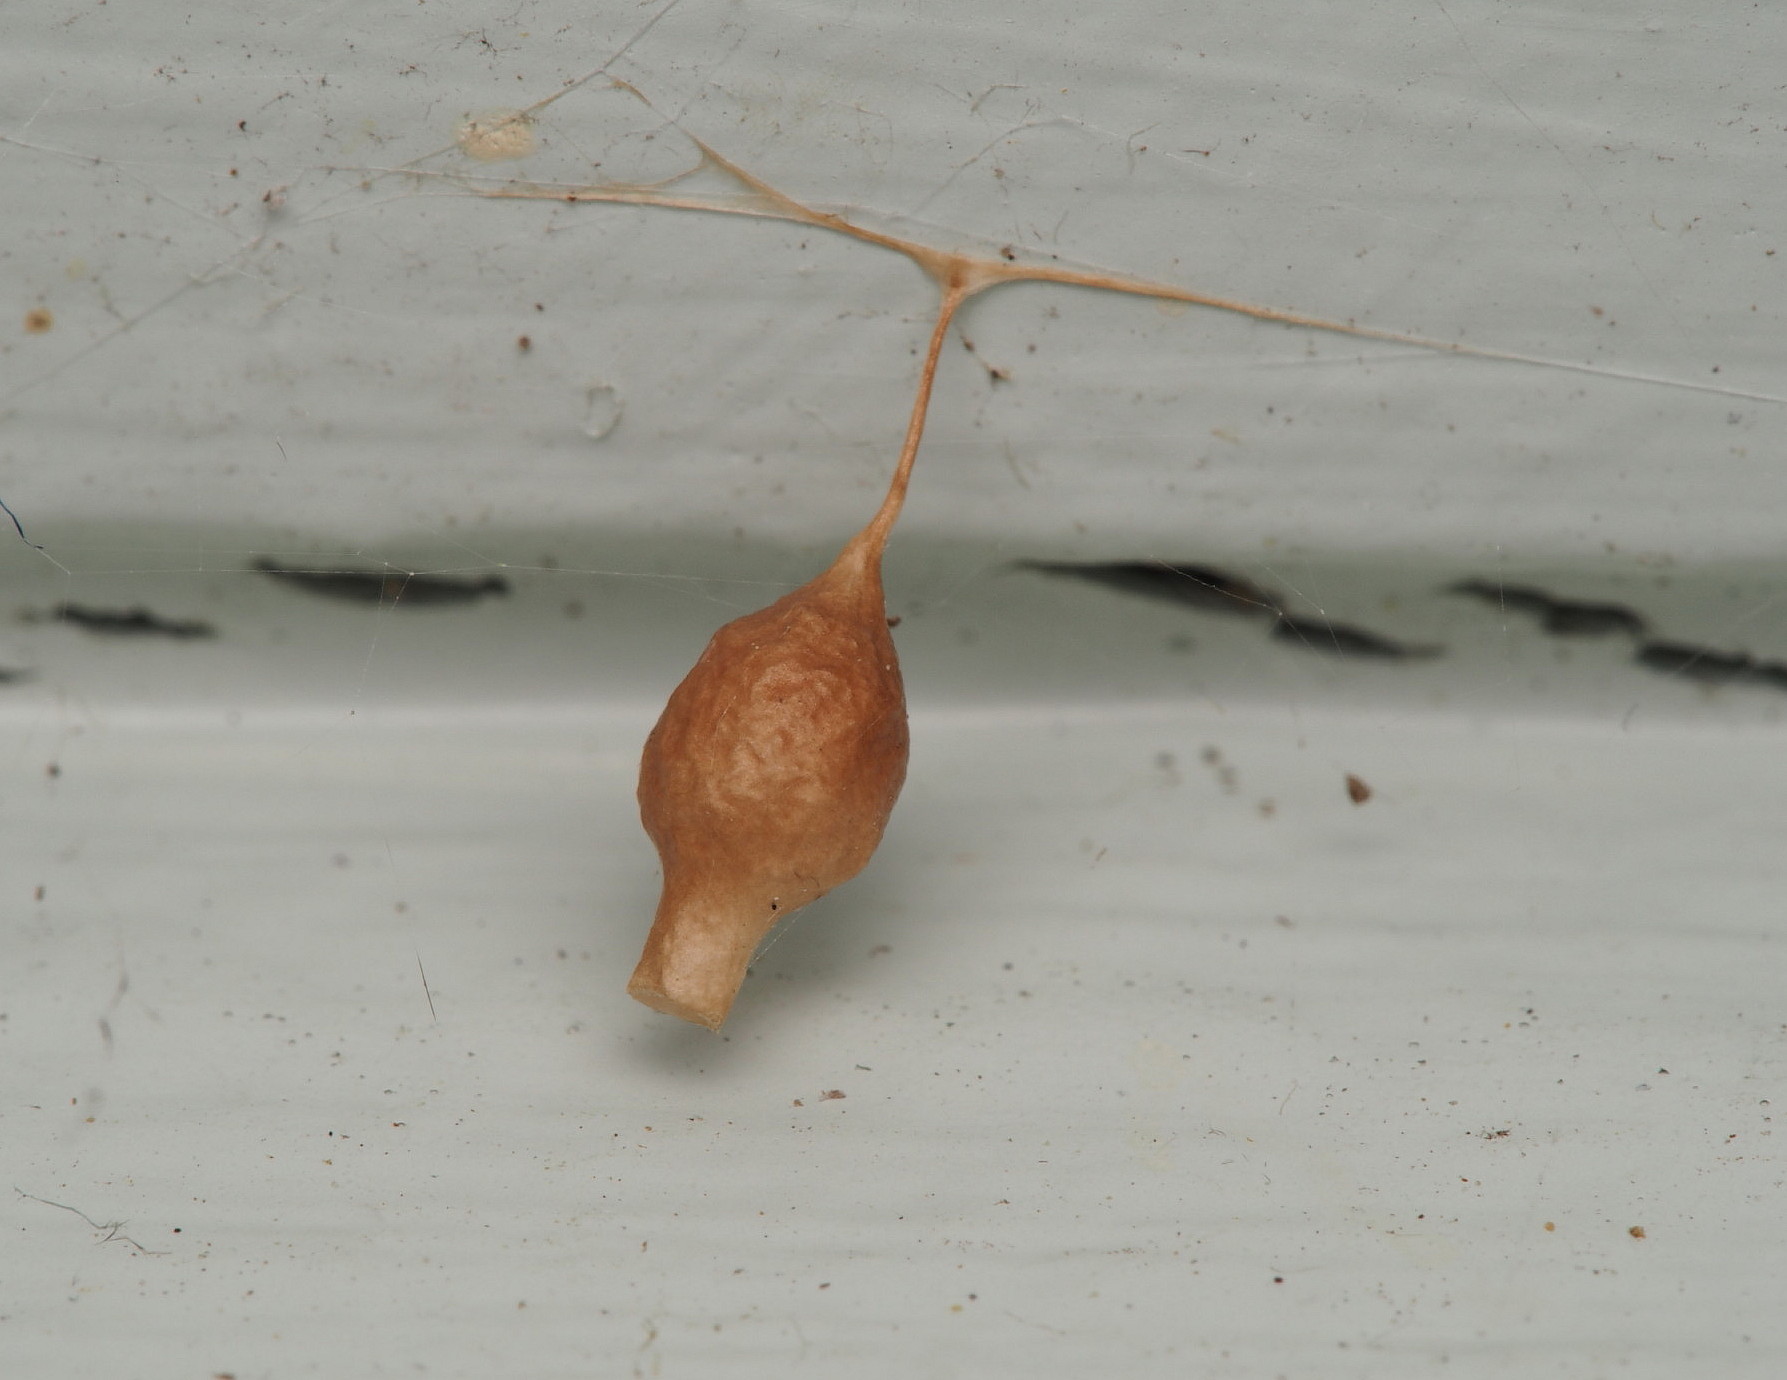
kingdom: Animalia
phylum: Arthropoda
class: Arachnida
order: Araneae
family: Theridiidae
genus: Argyrodes
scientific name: Argyrodes antipodianus
